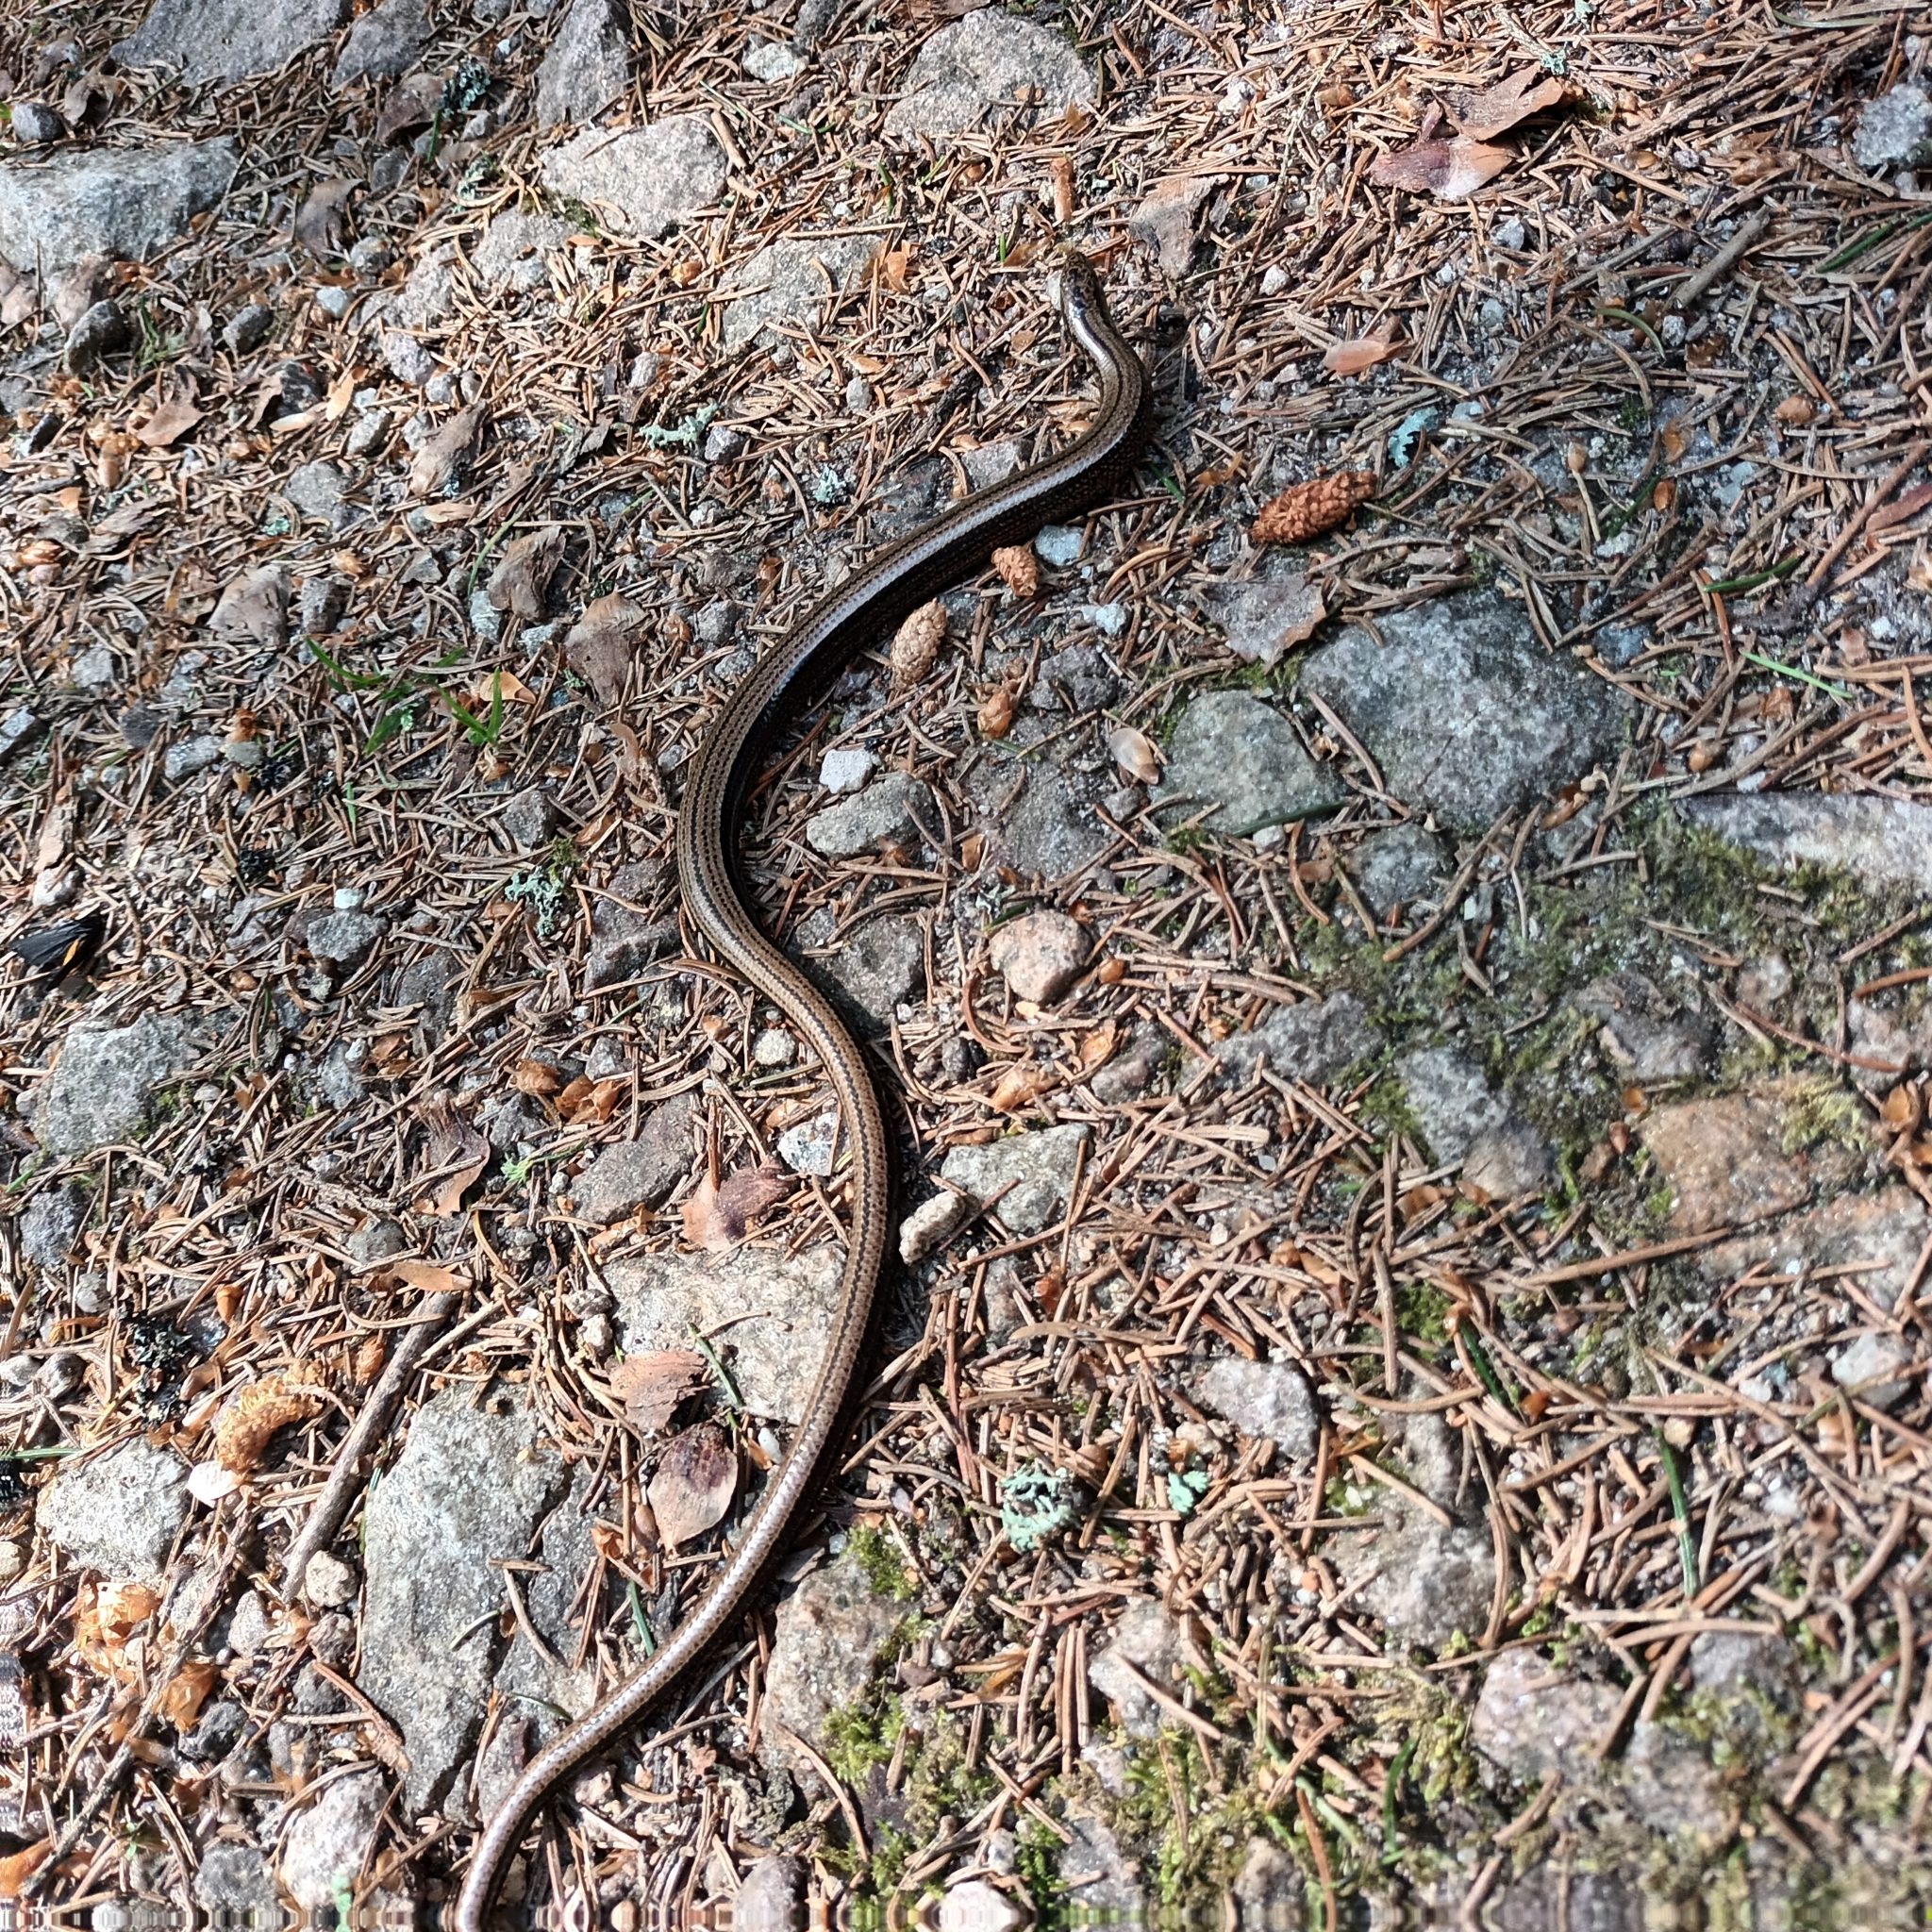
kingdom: Animalia
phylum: Chordata
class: Squamata
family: Anguidae
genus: Anguis
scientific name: Anguis fragilis
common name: Slow worm
